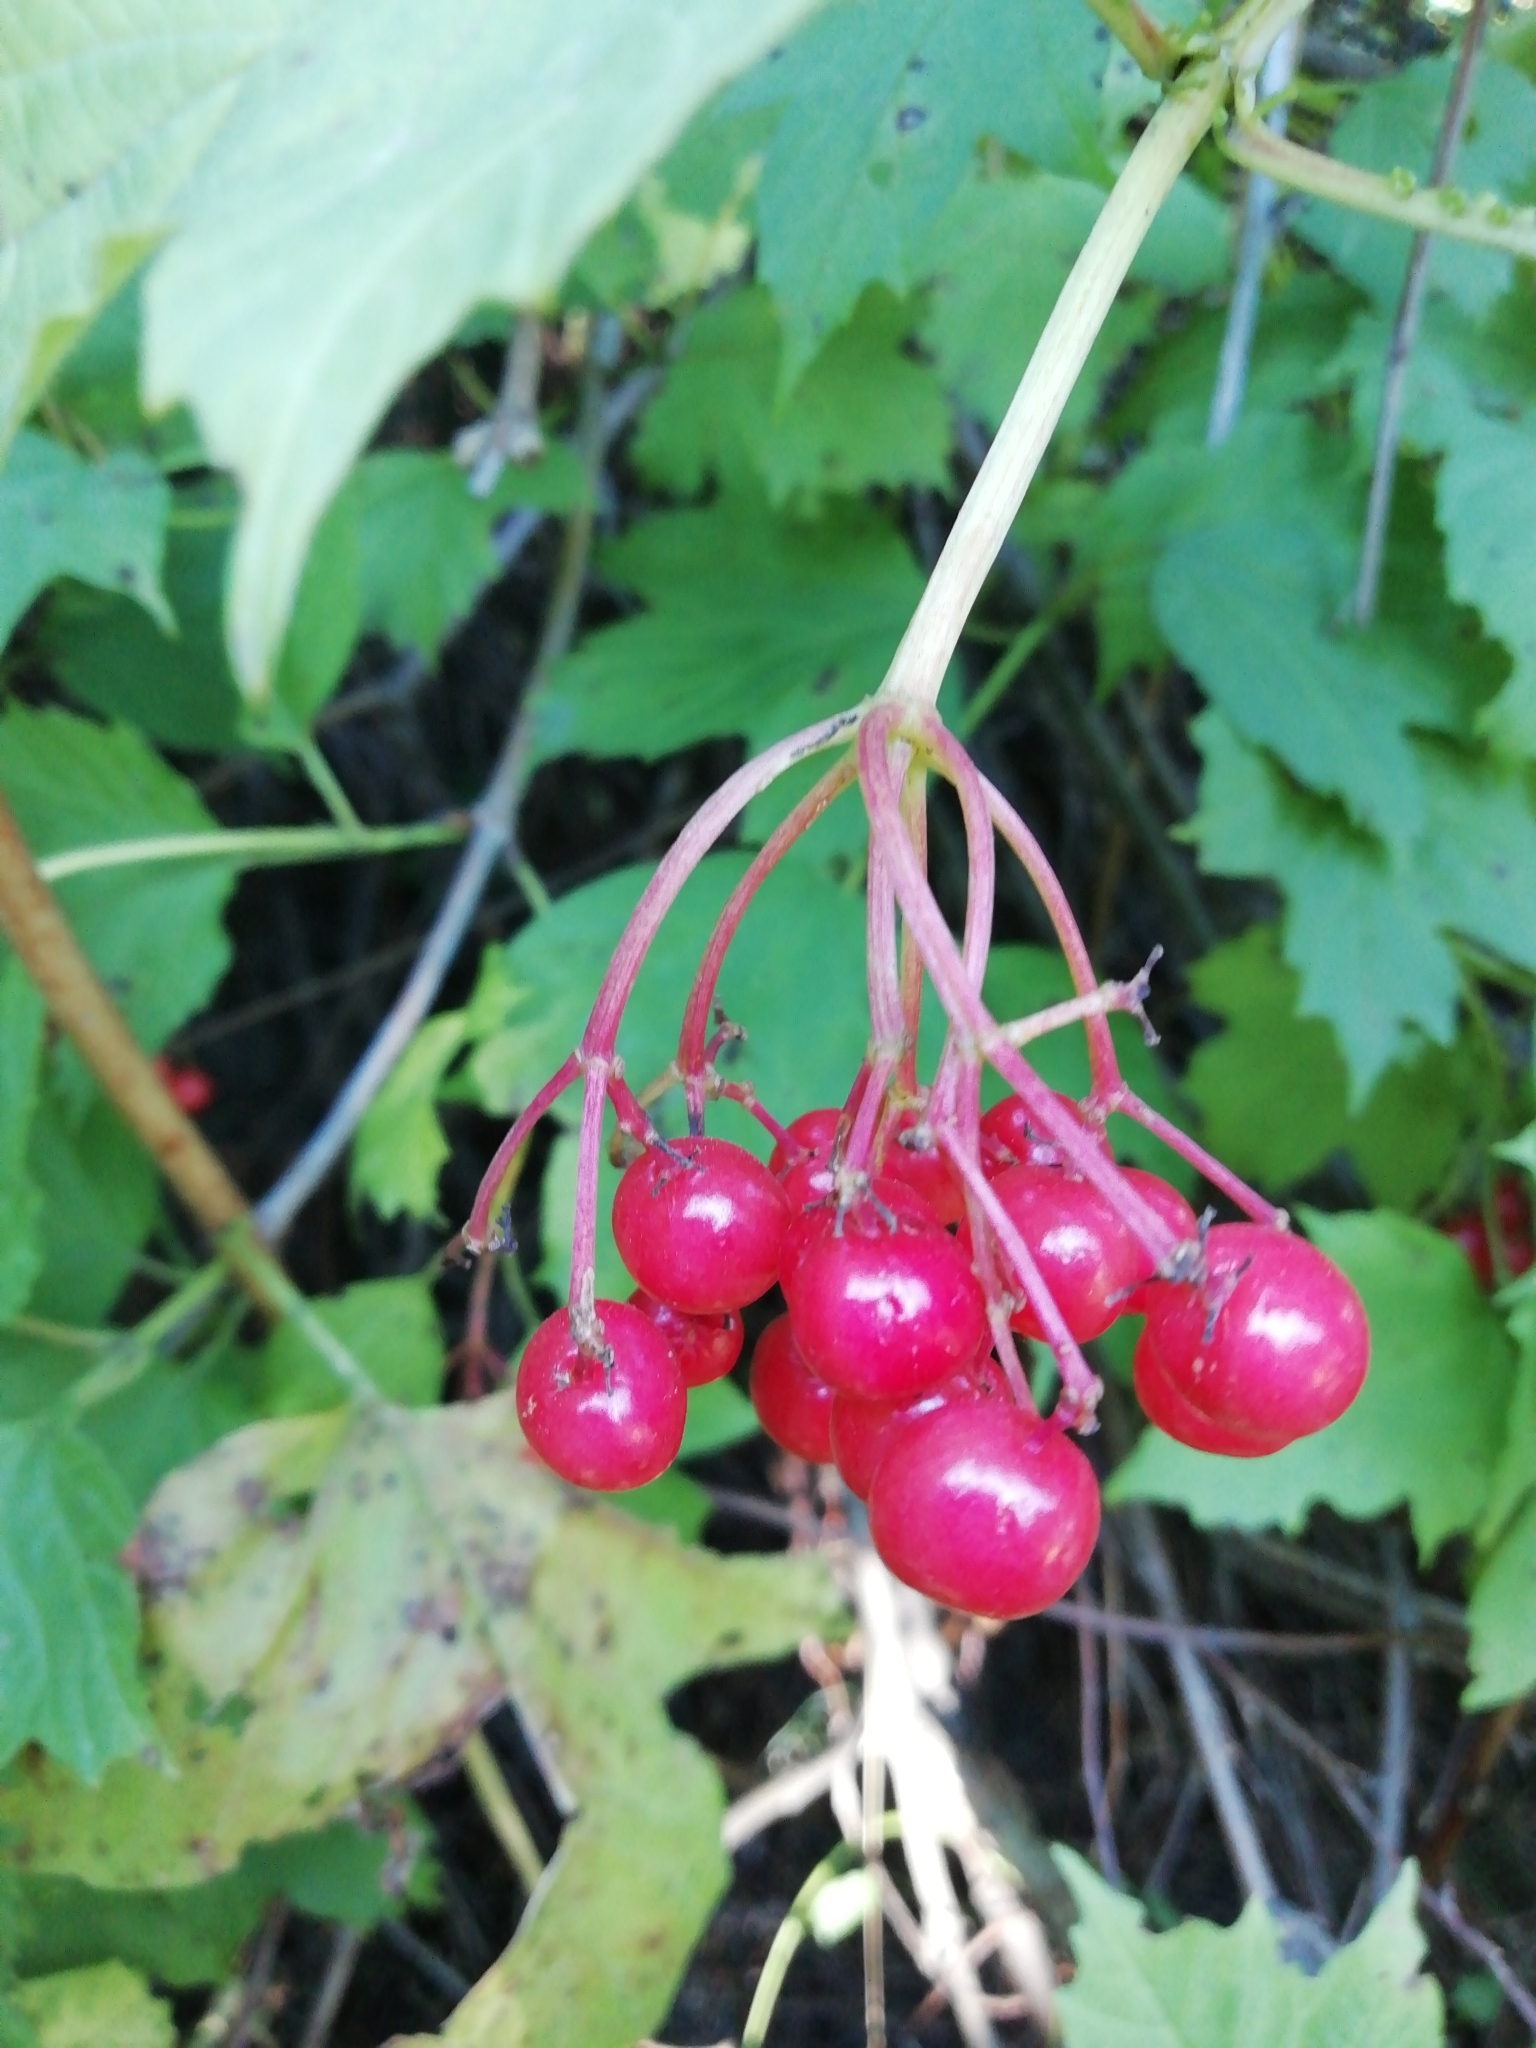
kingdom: Plantae
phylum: Tracheophyta
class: Magnoliopsida
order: Dipsacales
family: Viburnaceae
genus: Viburnum
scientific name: Viburnum opulus
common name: Guelder-rose
